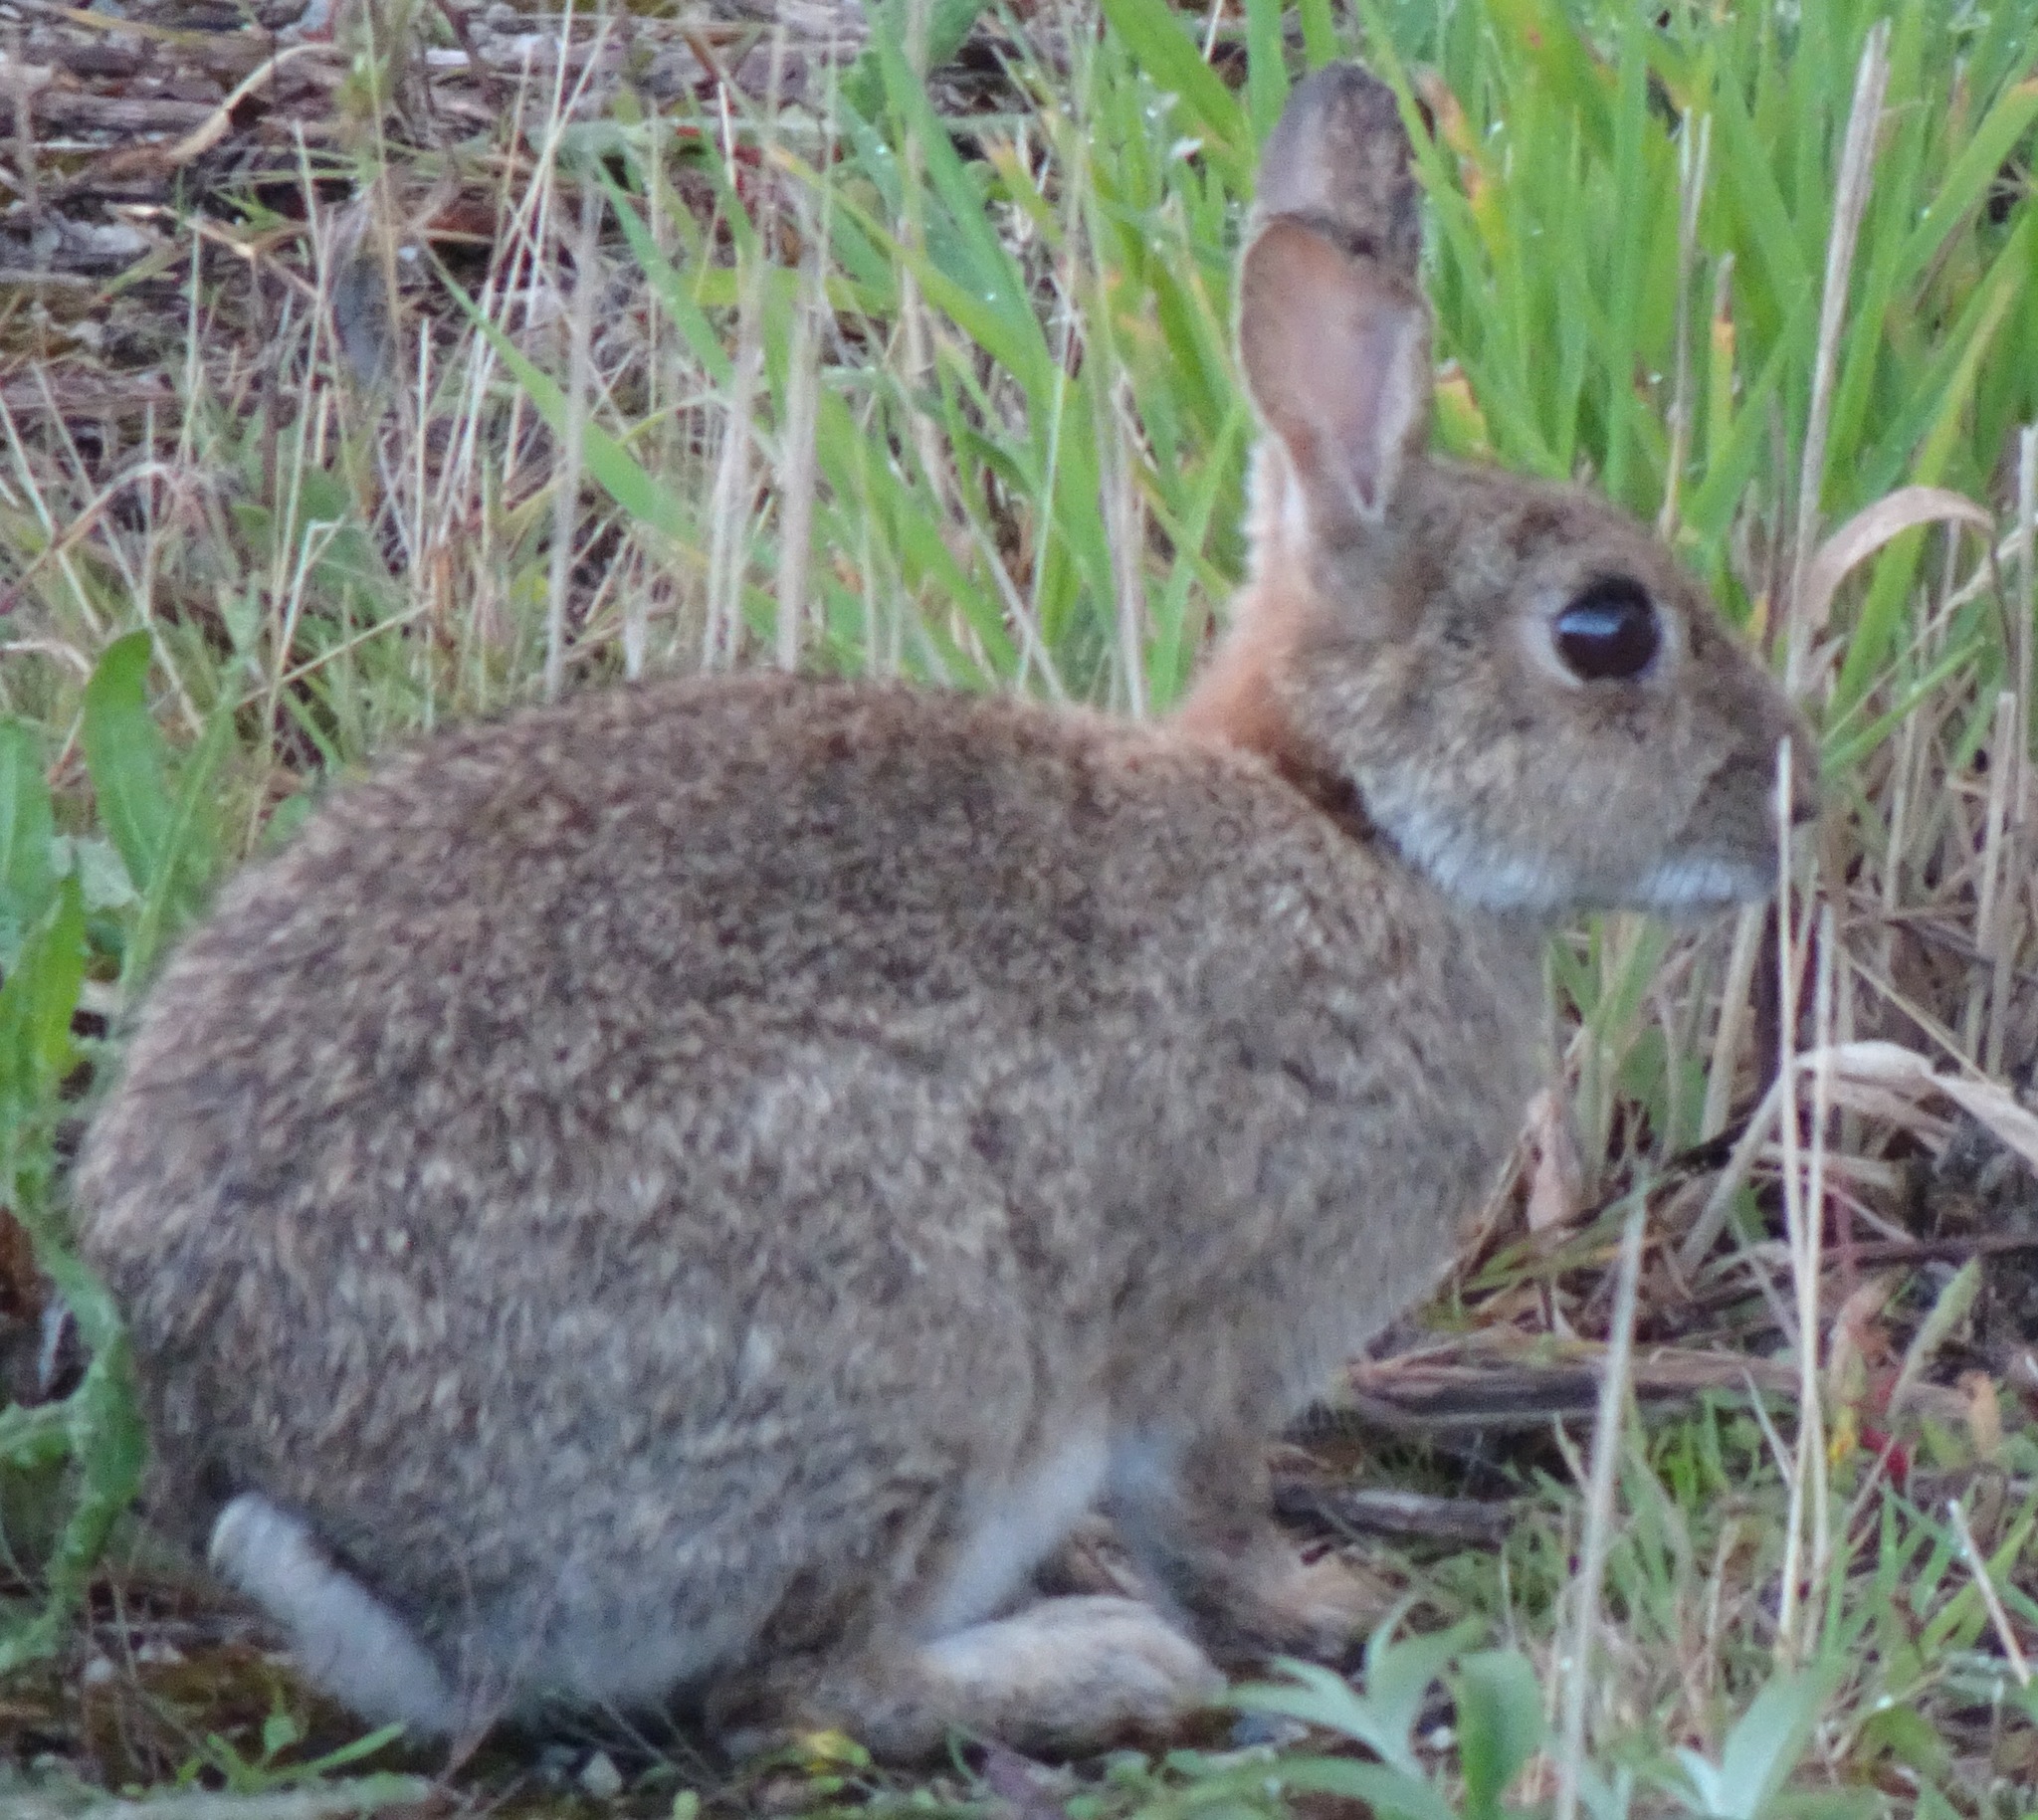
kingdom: Animalia
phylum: Chordata
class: Mammalia
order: Lagomorpha
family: Leporidae
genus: Oryctolagus
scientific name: Oryctolagus cuniculus
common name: European rabbit
